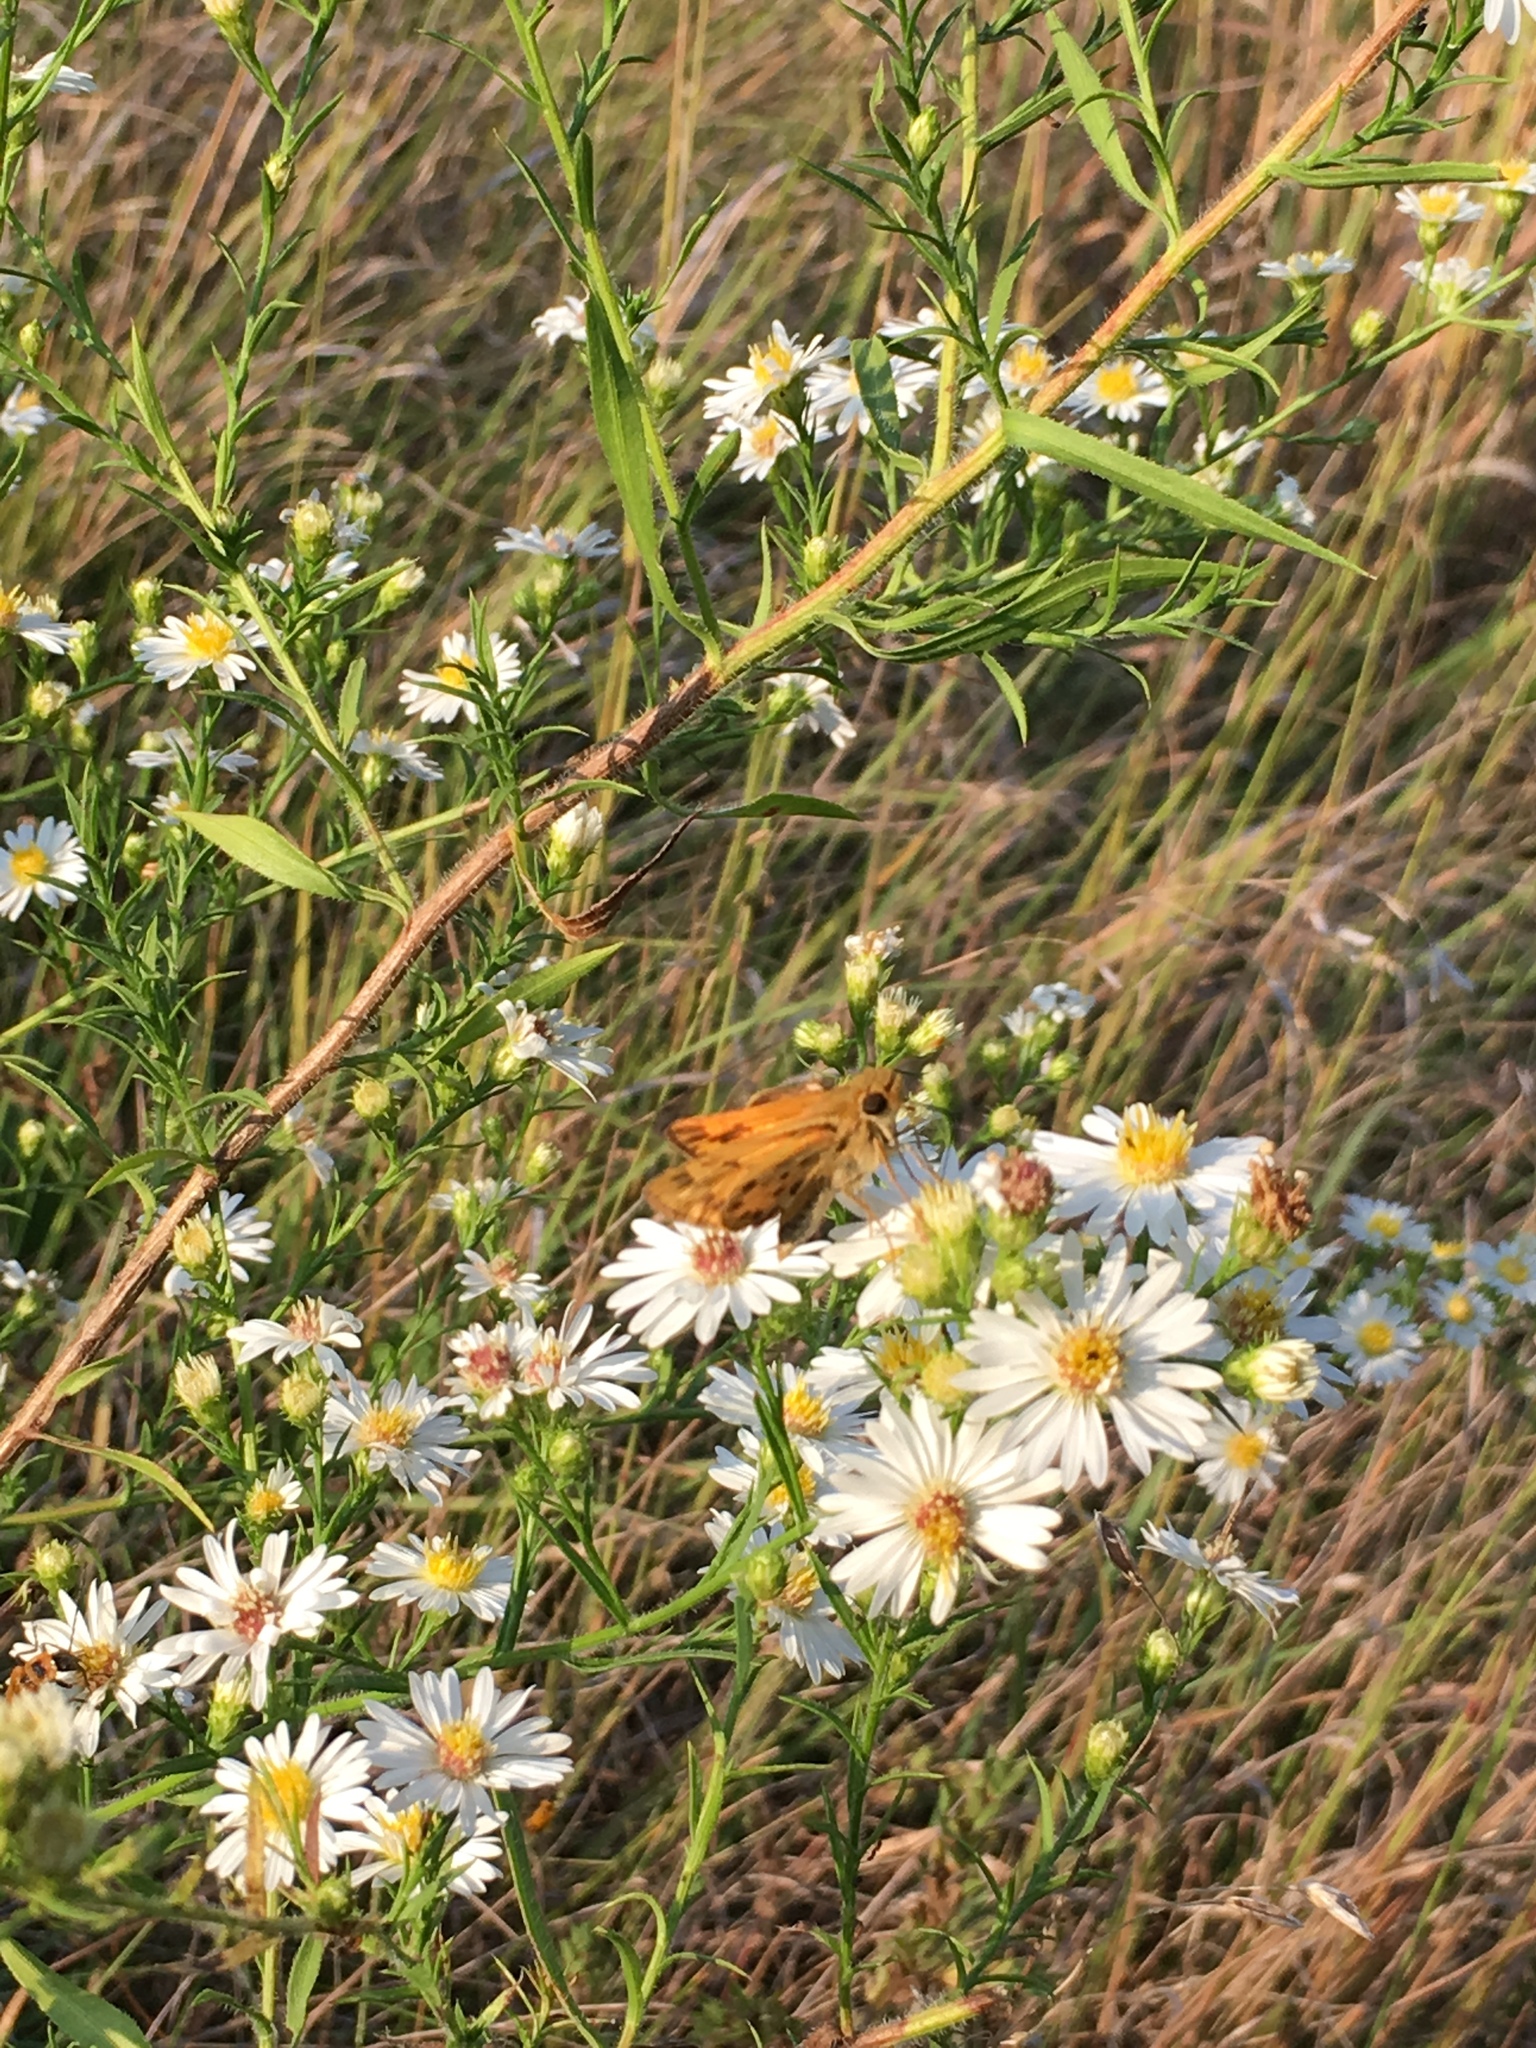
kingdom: Animalia
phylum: Arthropoda
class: Insecta
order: Lepidoptera
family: Hesperiidae
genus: Hylephila
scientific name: Hylephila phyleus
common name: Fiery skipper
